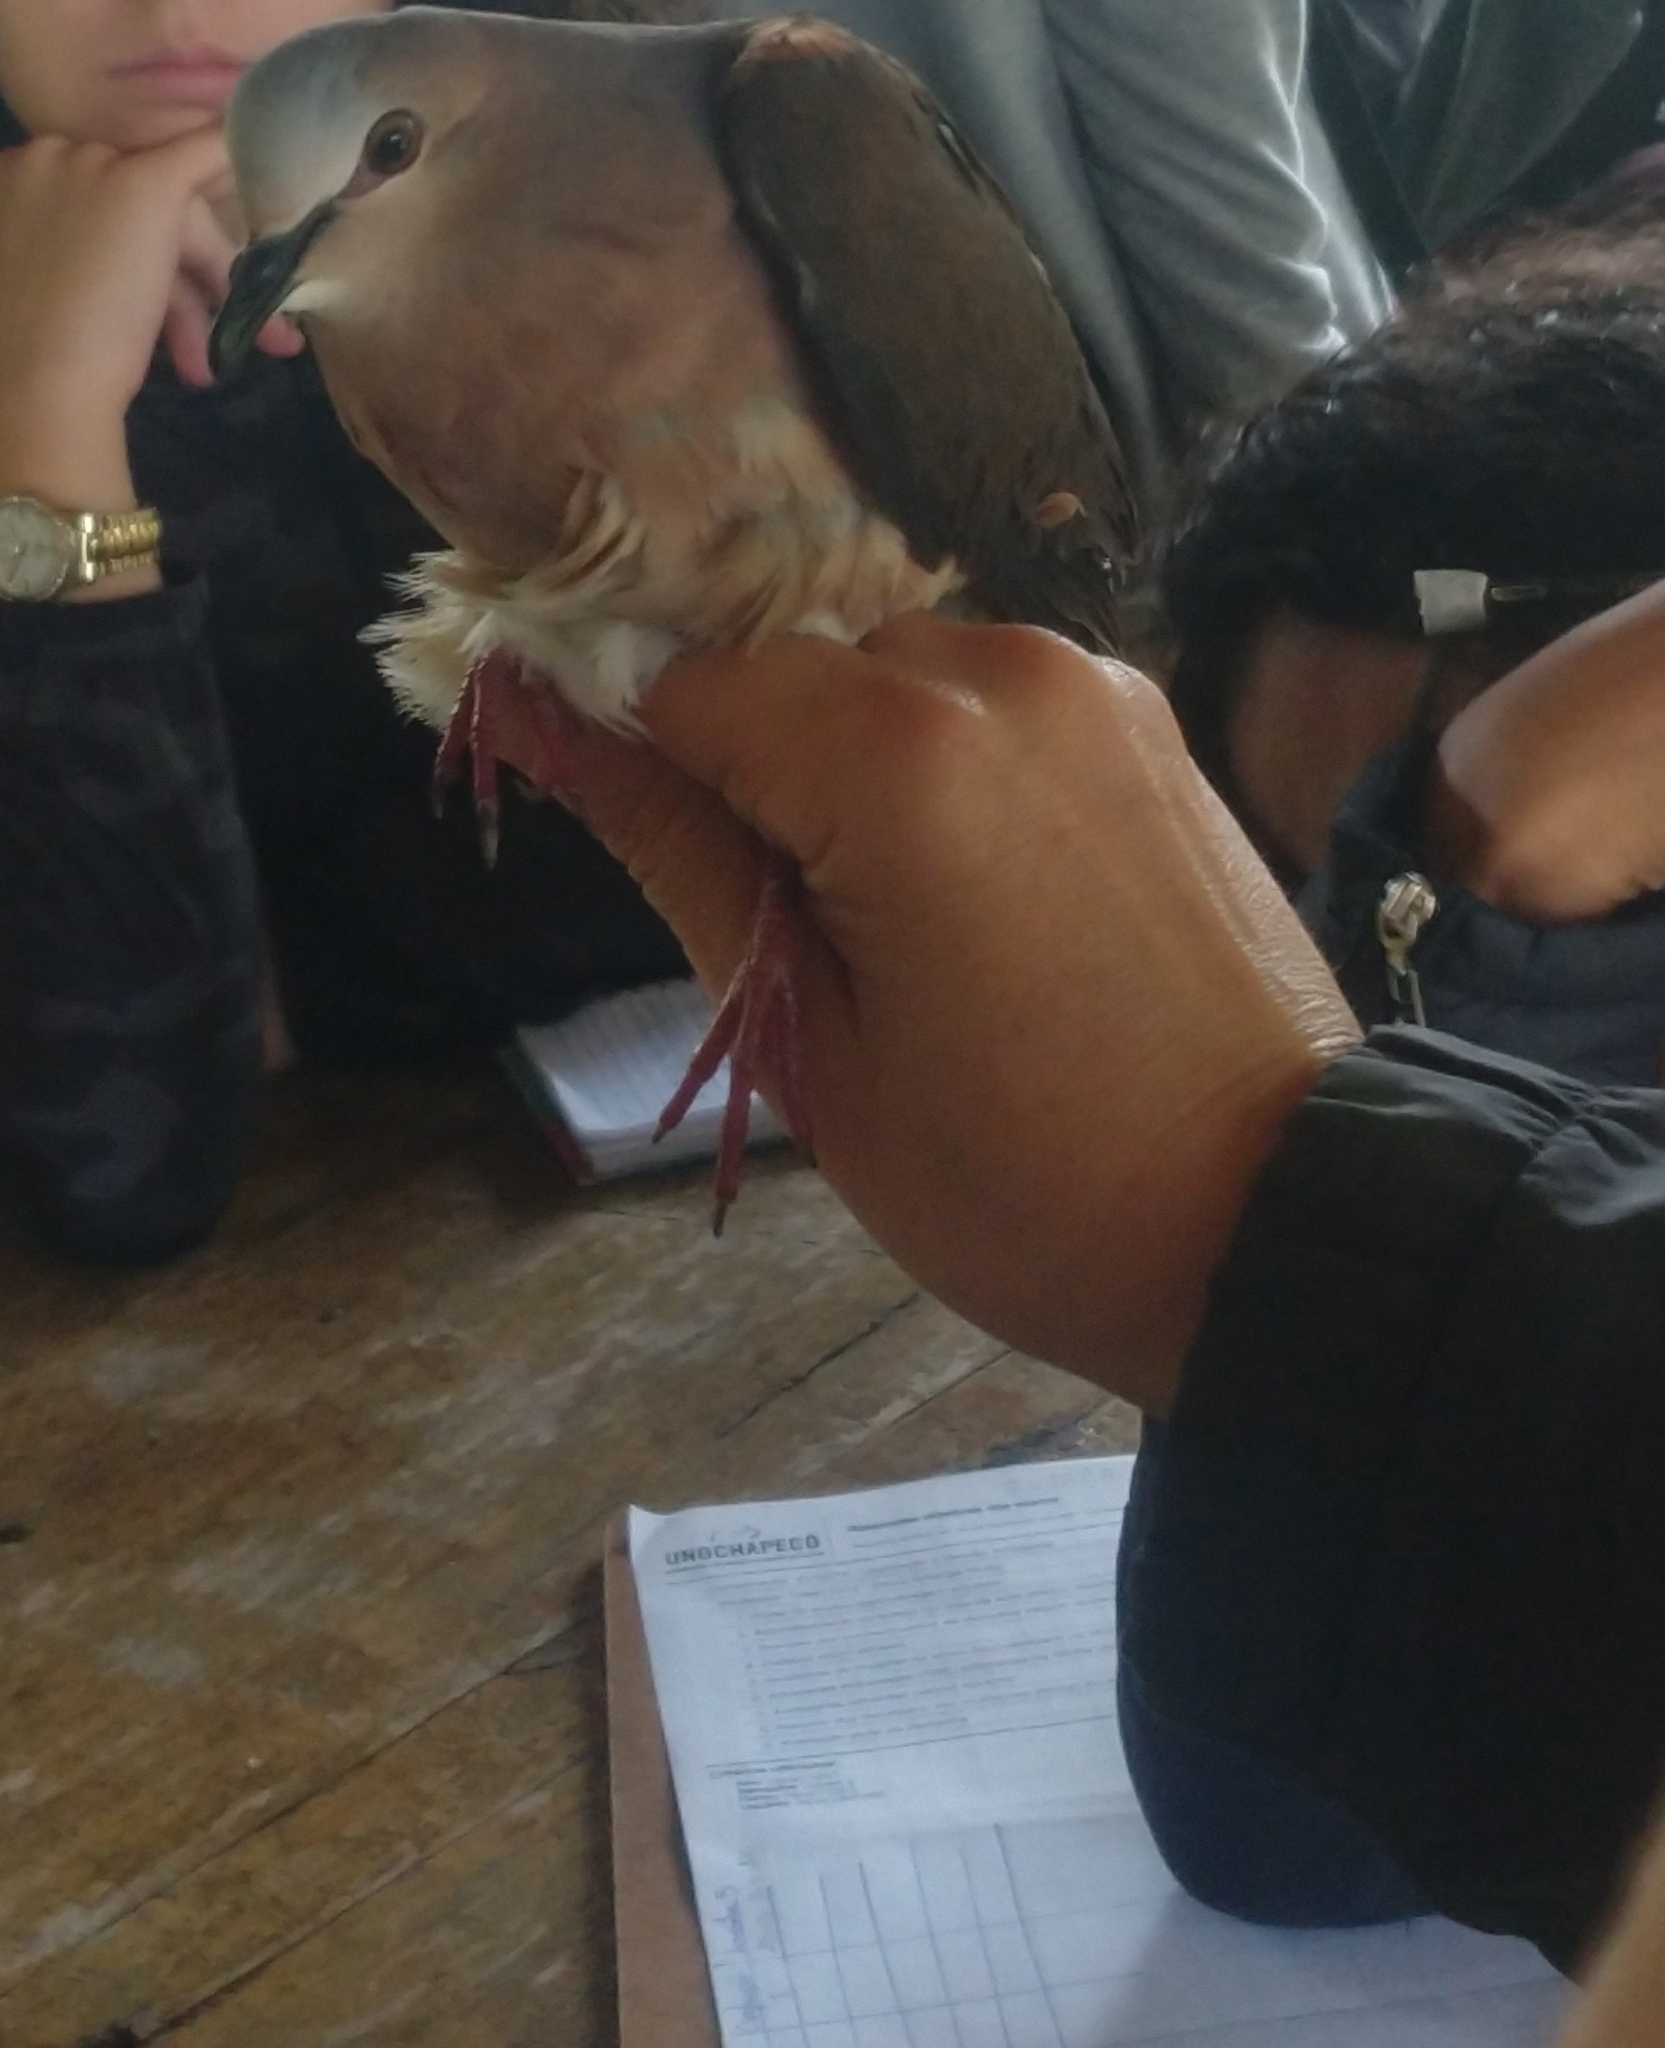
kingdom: Animalia
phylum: Chordata
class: Aves
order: Columbiformes
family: Columbidae
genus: Leptotila
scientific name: Leptotila rufaxilla
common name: Grey-fronted dove
